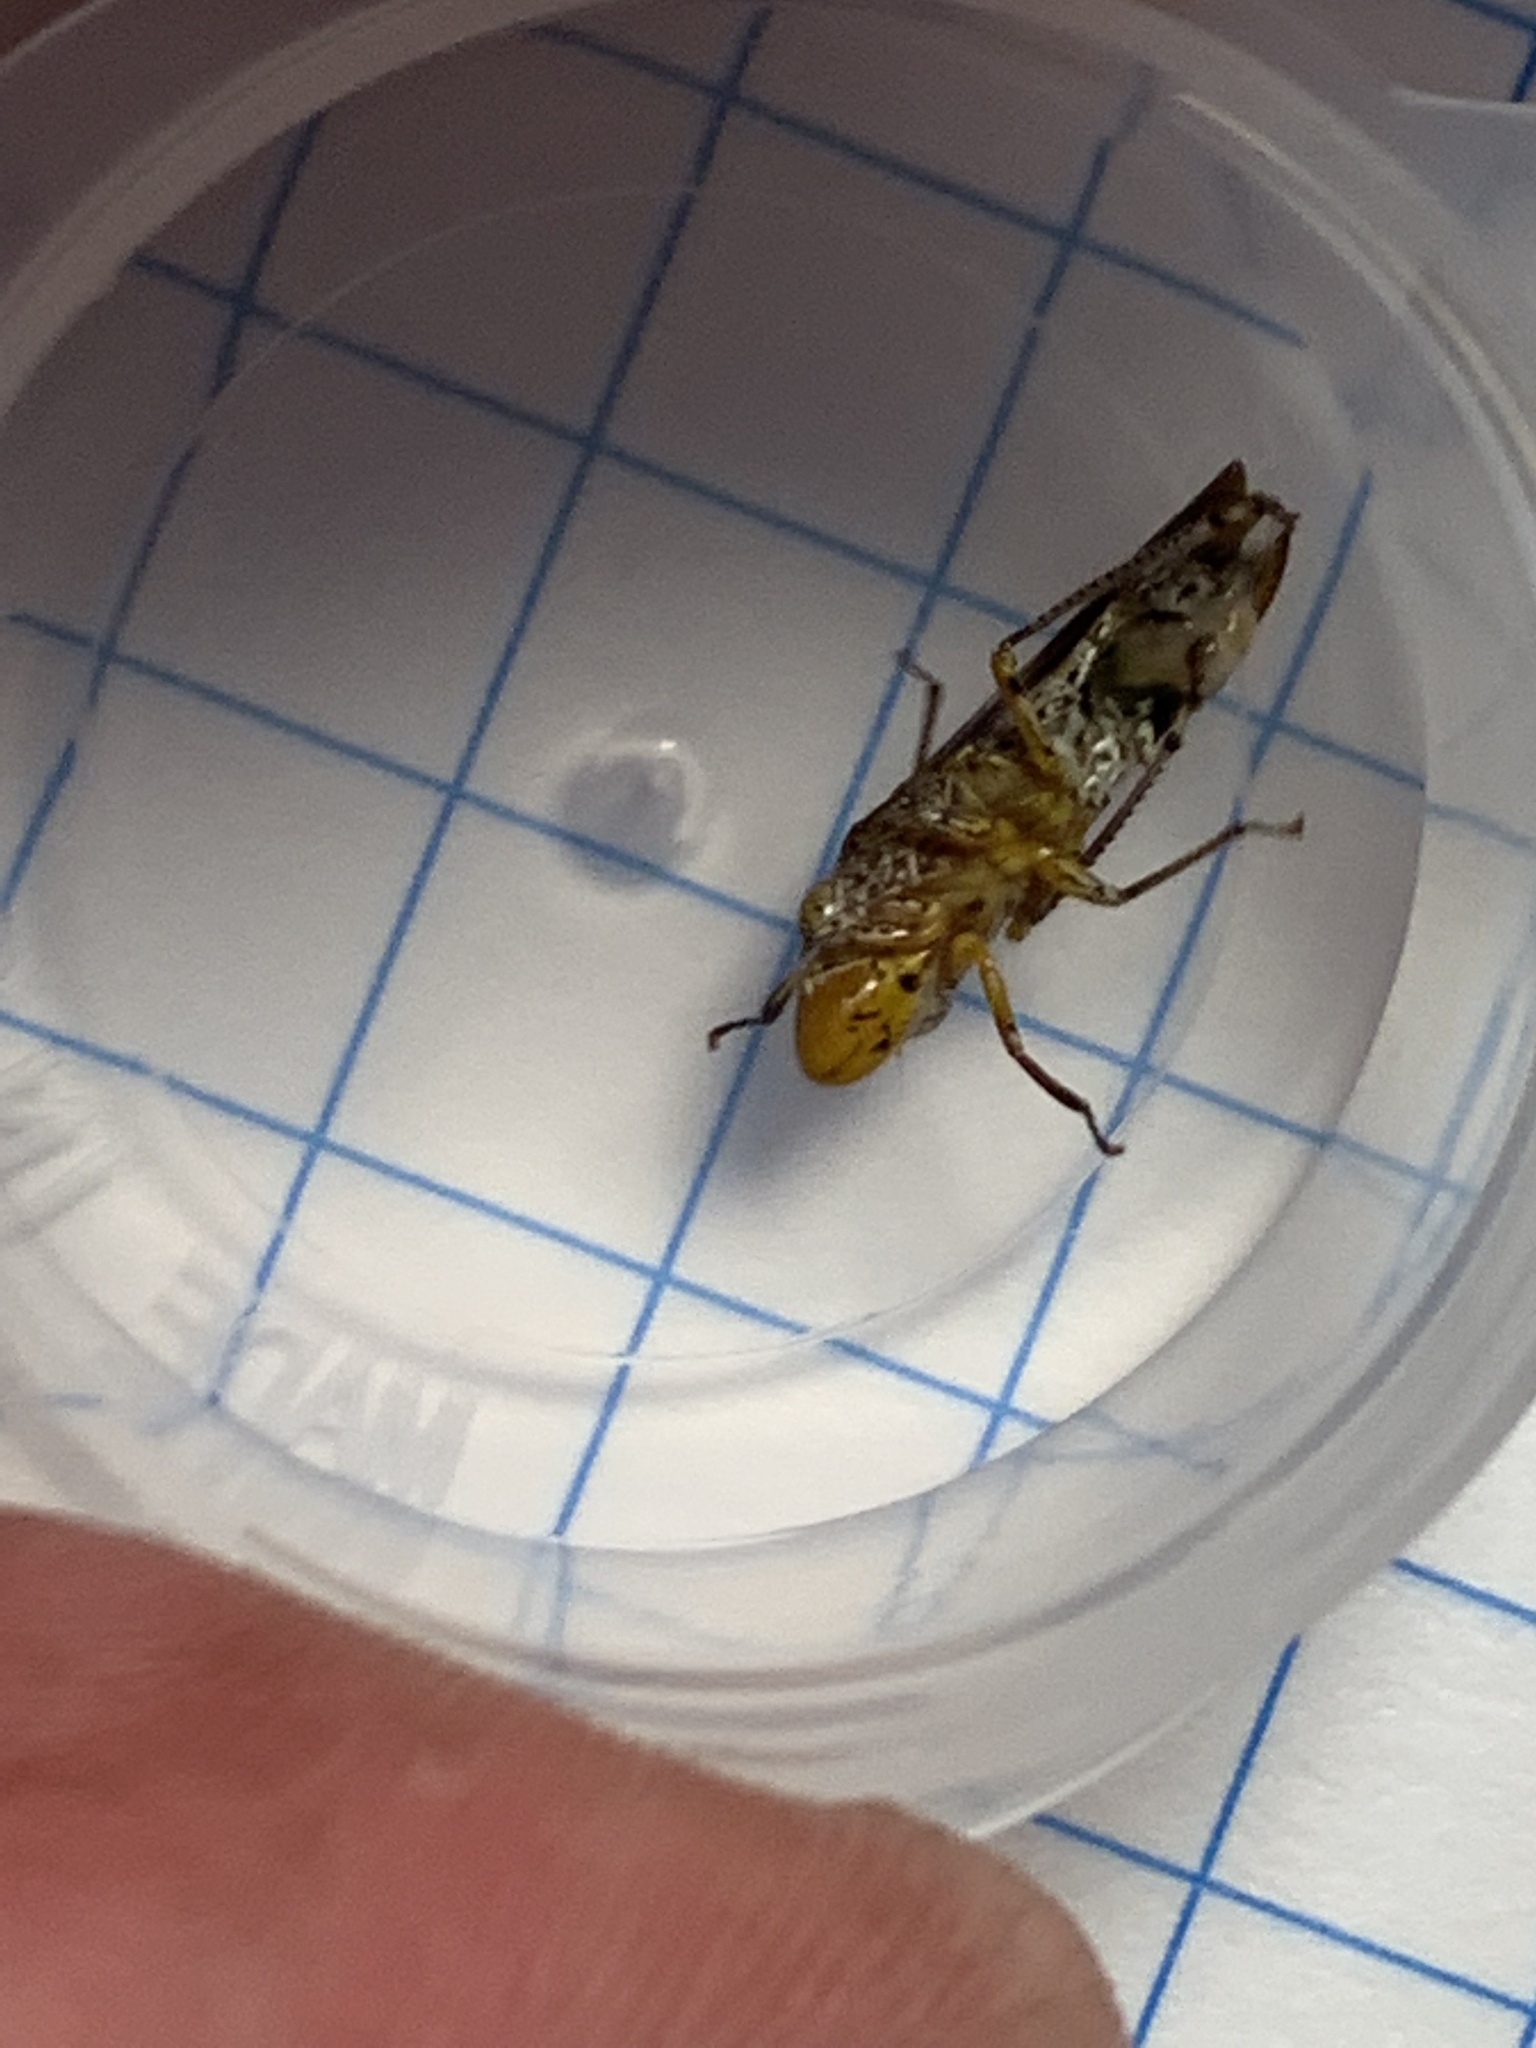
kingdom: Animalia
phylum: Arthropoda
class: Insecta
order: Hemiptera
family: Cicadellidae
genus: Homalodisca
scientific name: Homalodisca vitripennis
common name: Glassy-winged sharpshooter
